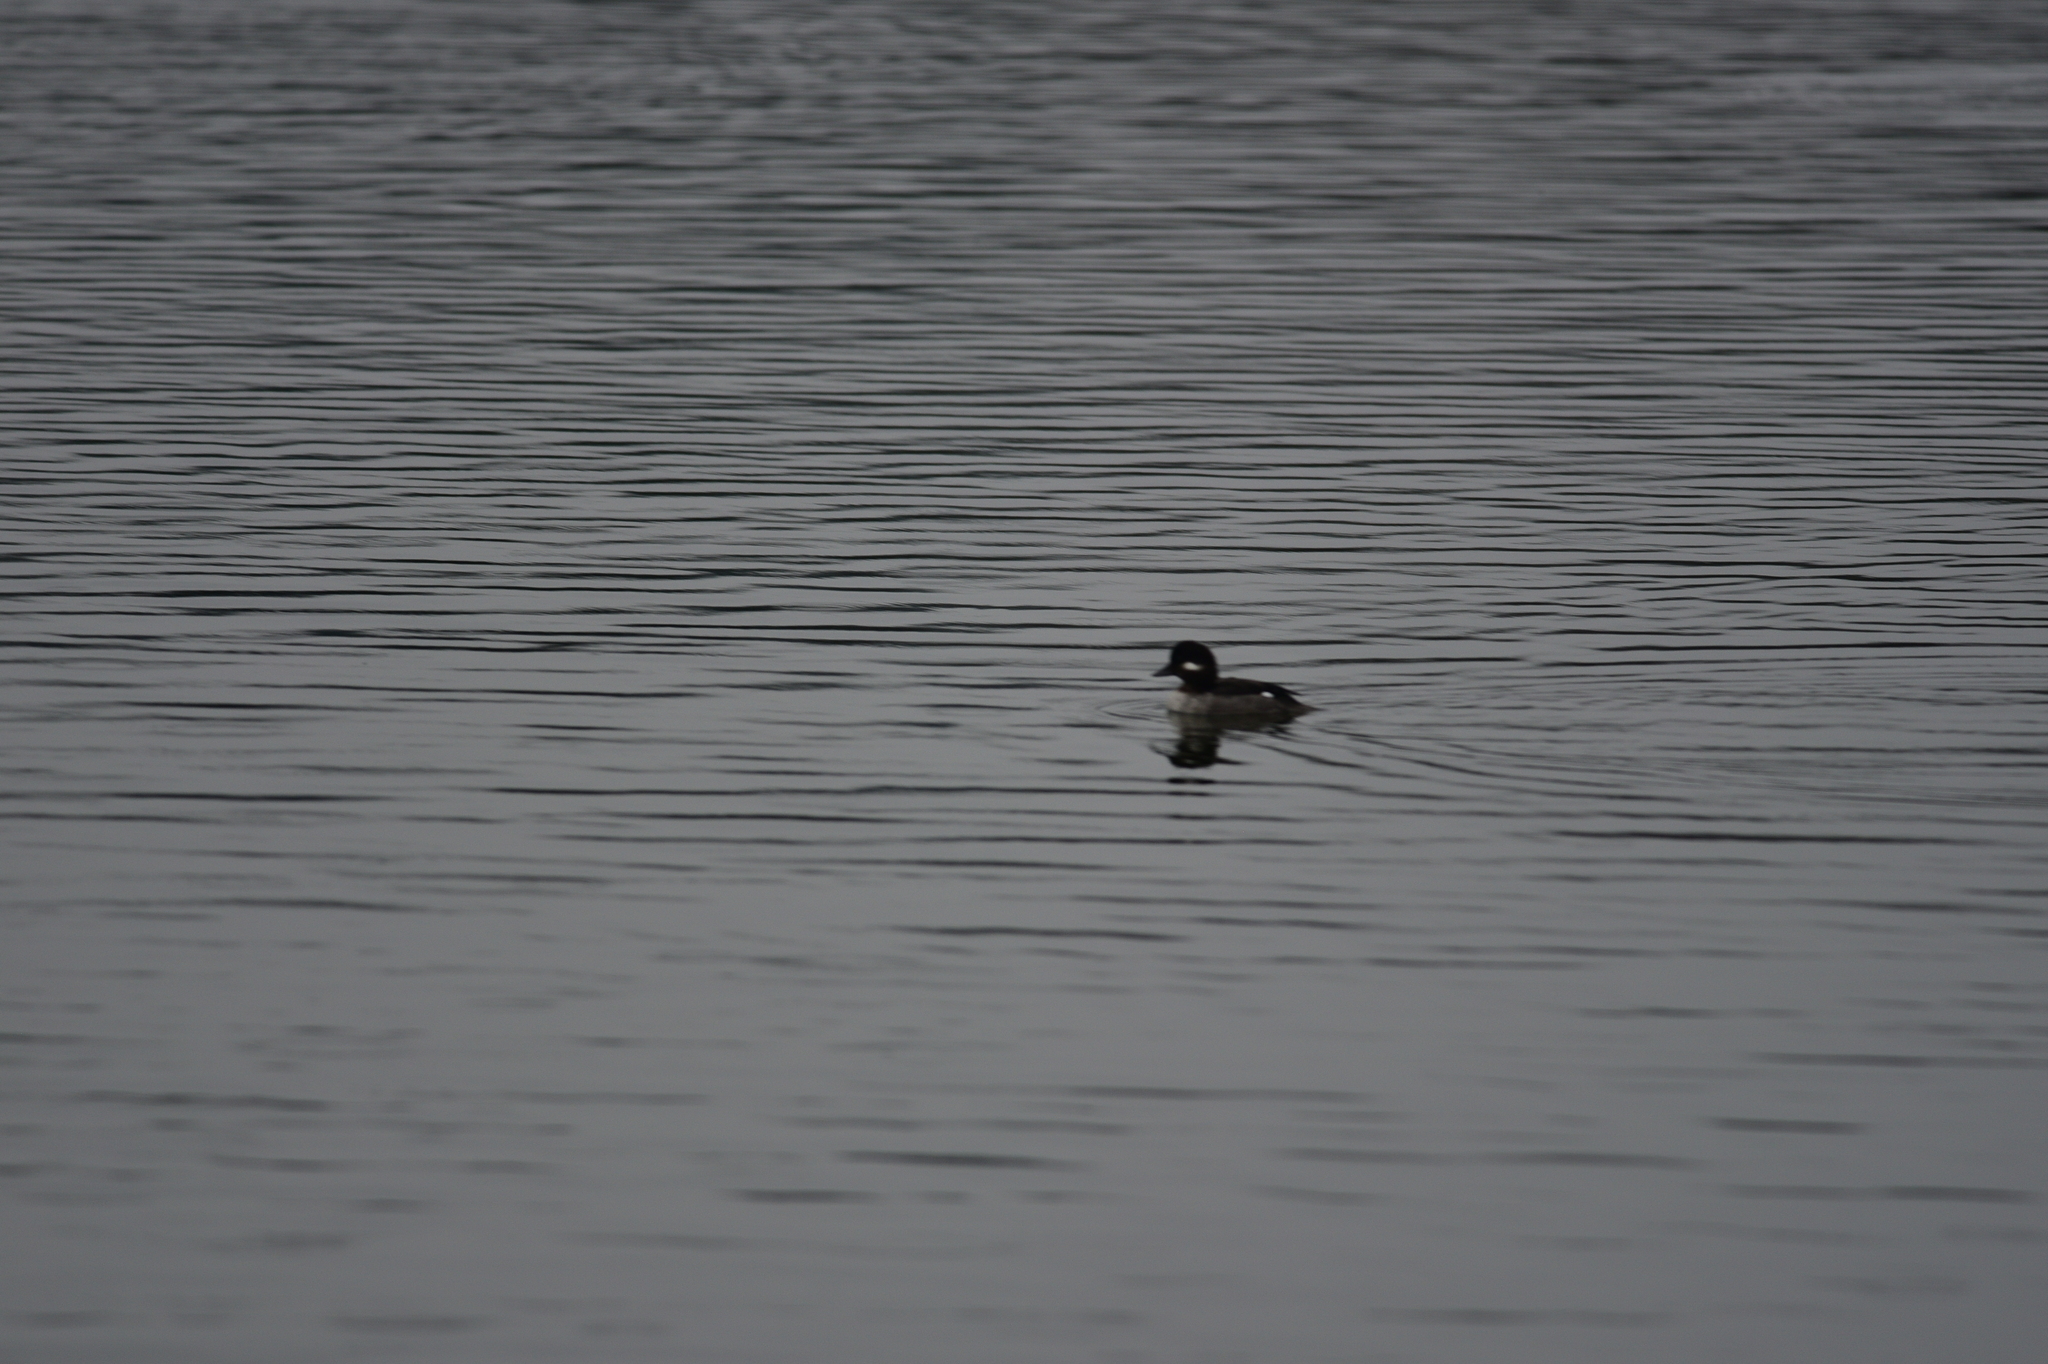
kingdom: Animalia
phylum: Chordata
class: Aves
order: Anseriformes
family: Anatidae
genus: Bucephala
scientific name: Bucephala albeola
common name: Bufflehead
